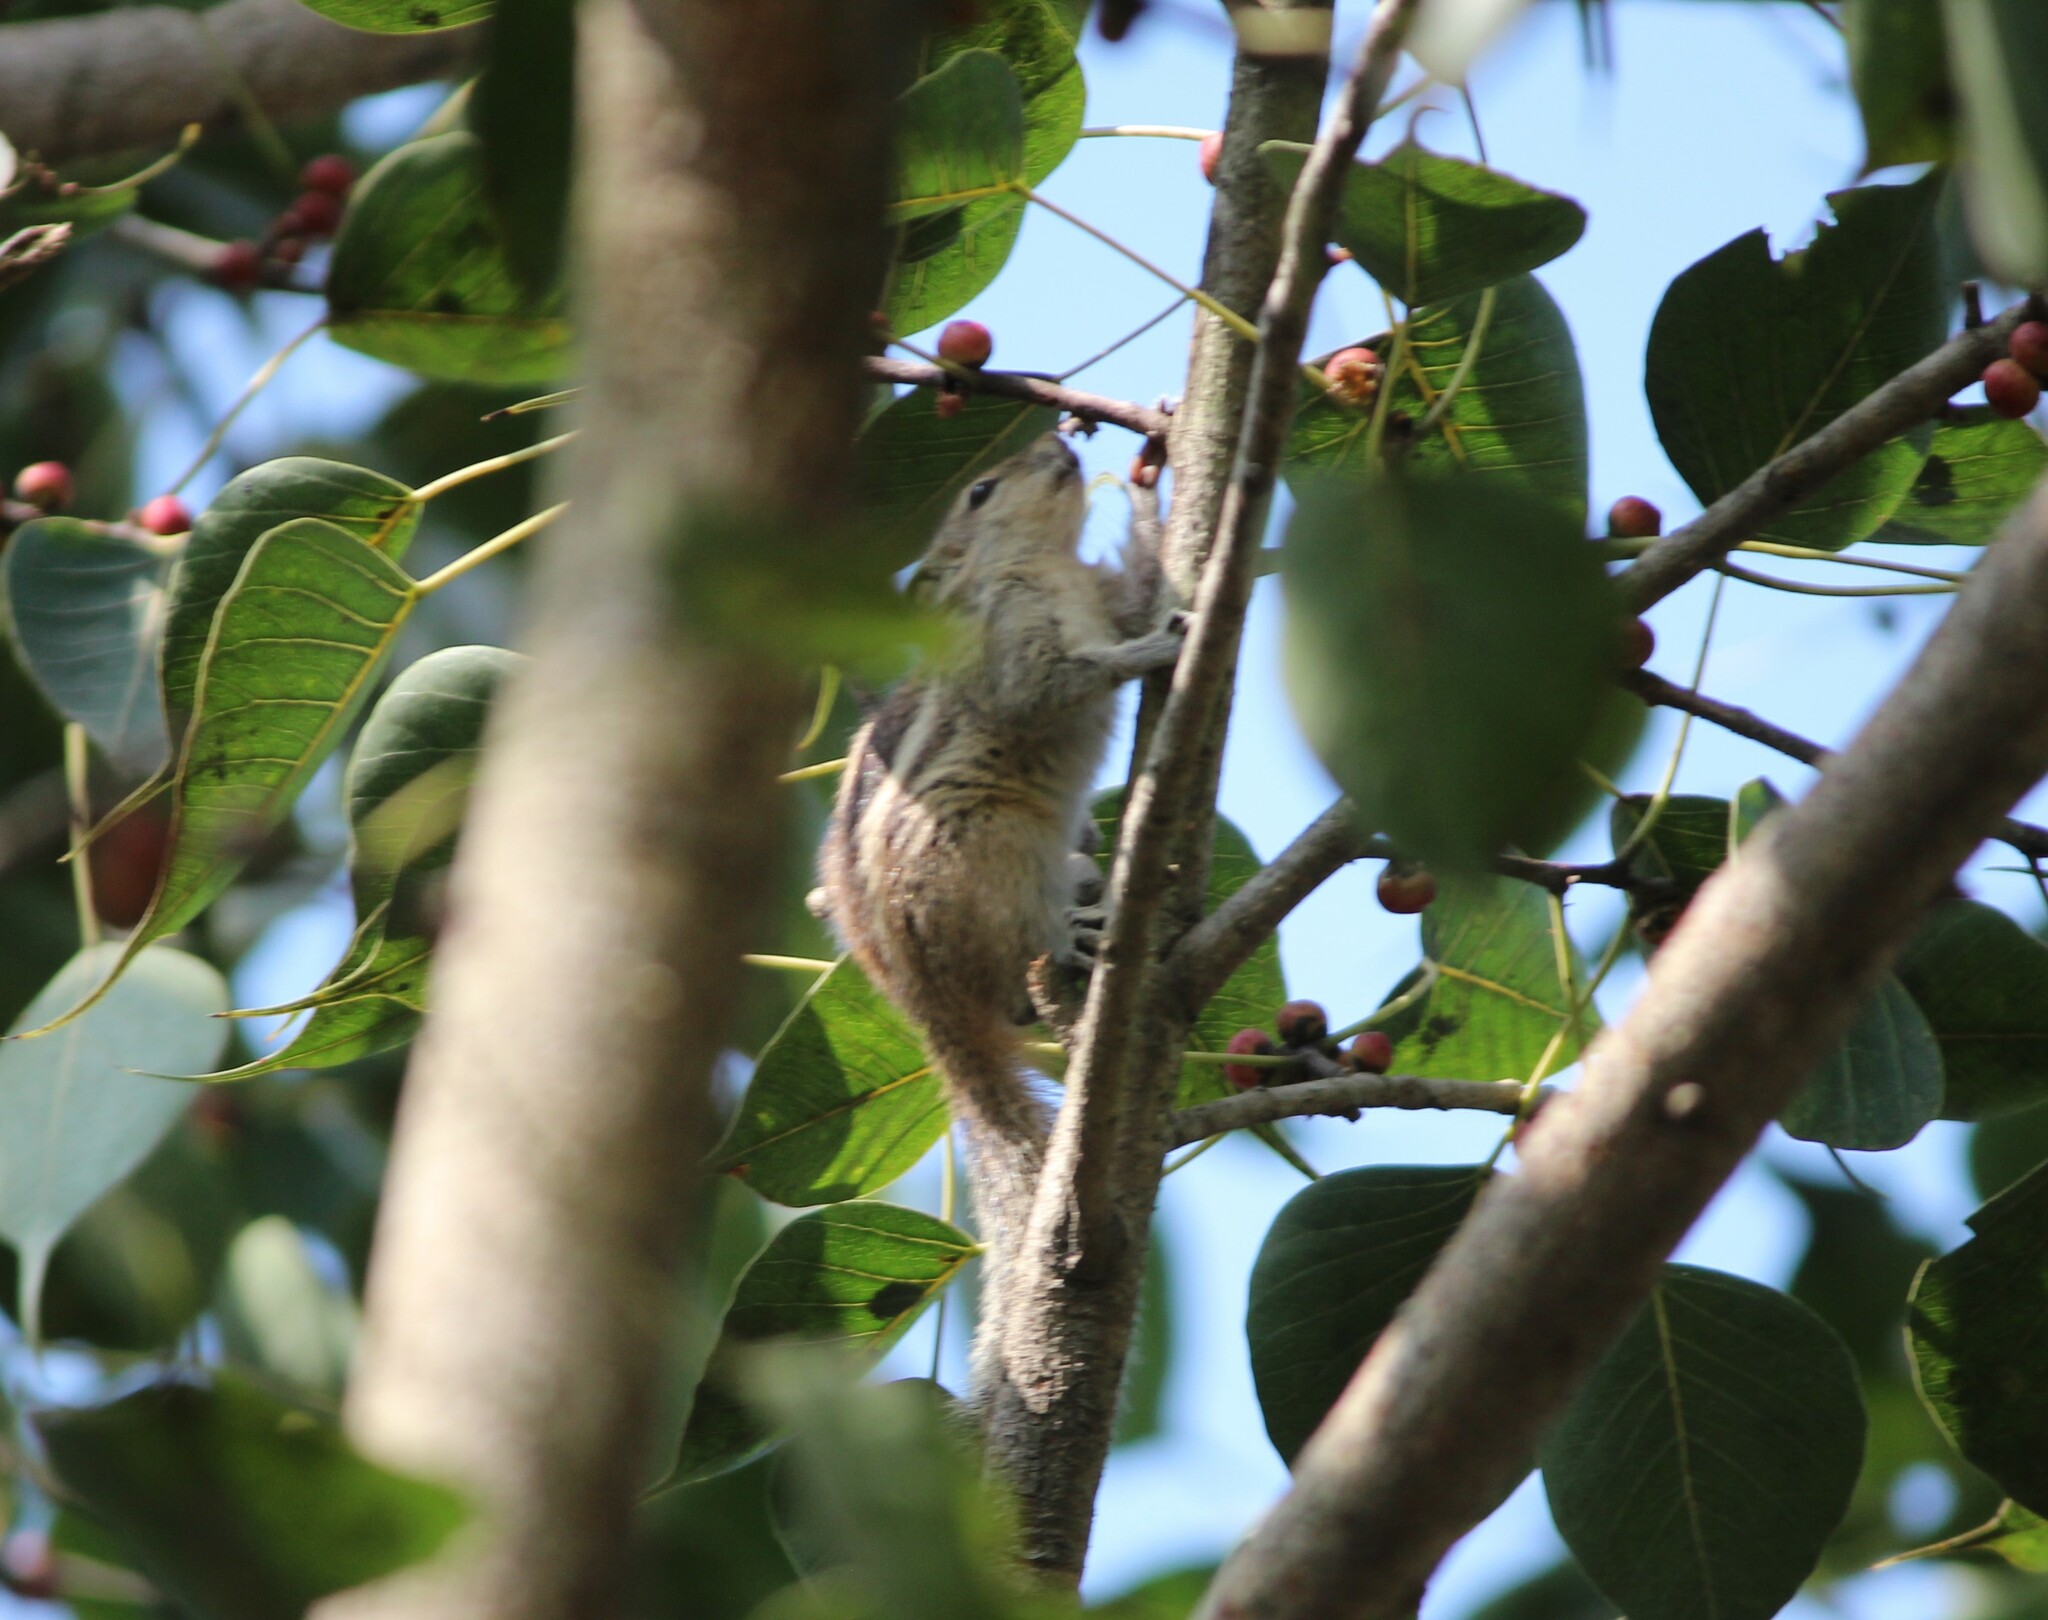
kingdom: Animalia
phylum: Chordata
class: Mammalia
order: Rodentia
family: Sciuridae
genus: Funambulus
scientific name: Funambulus palmarum
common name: Indian palm squirrel
